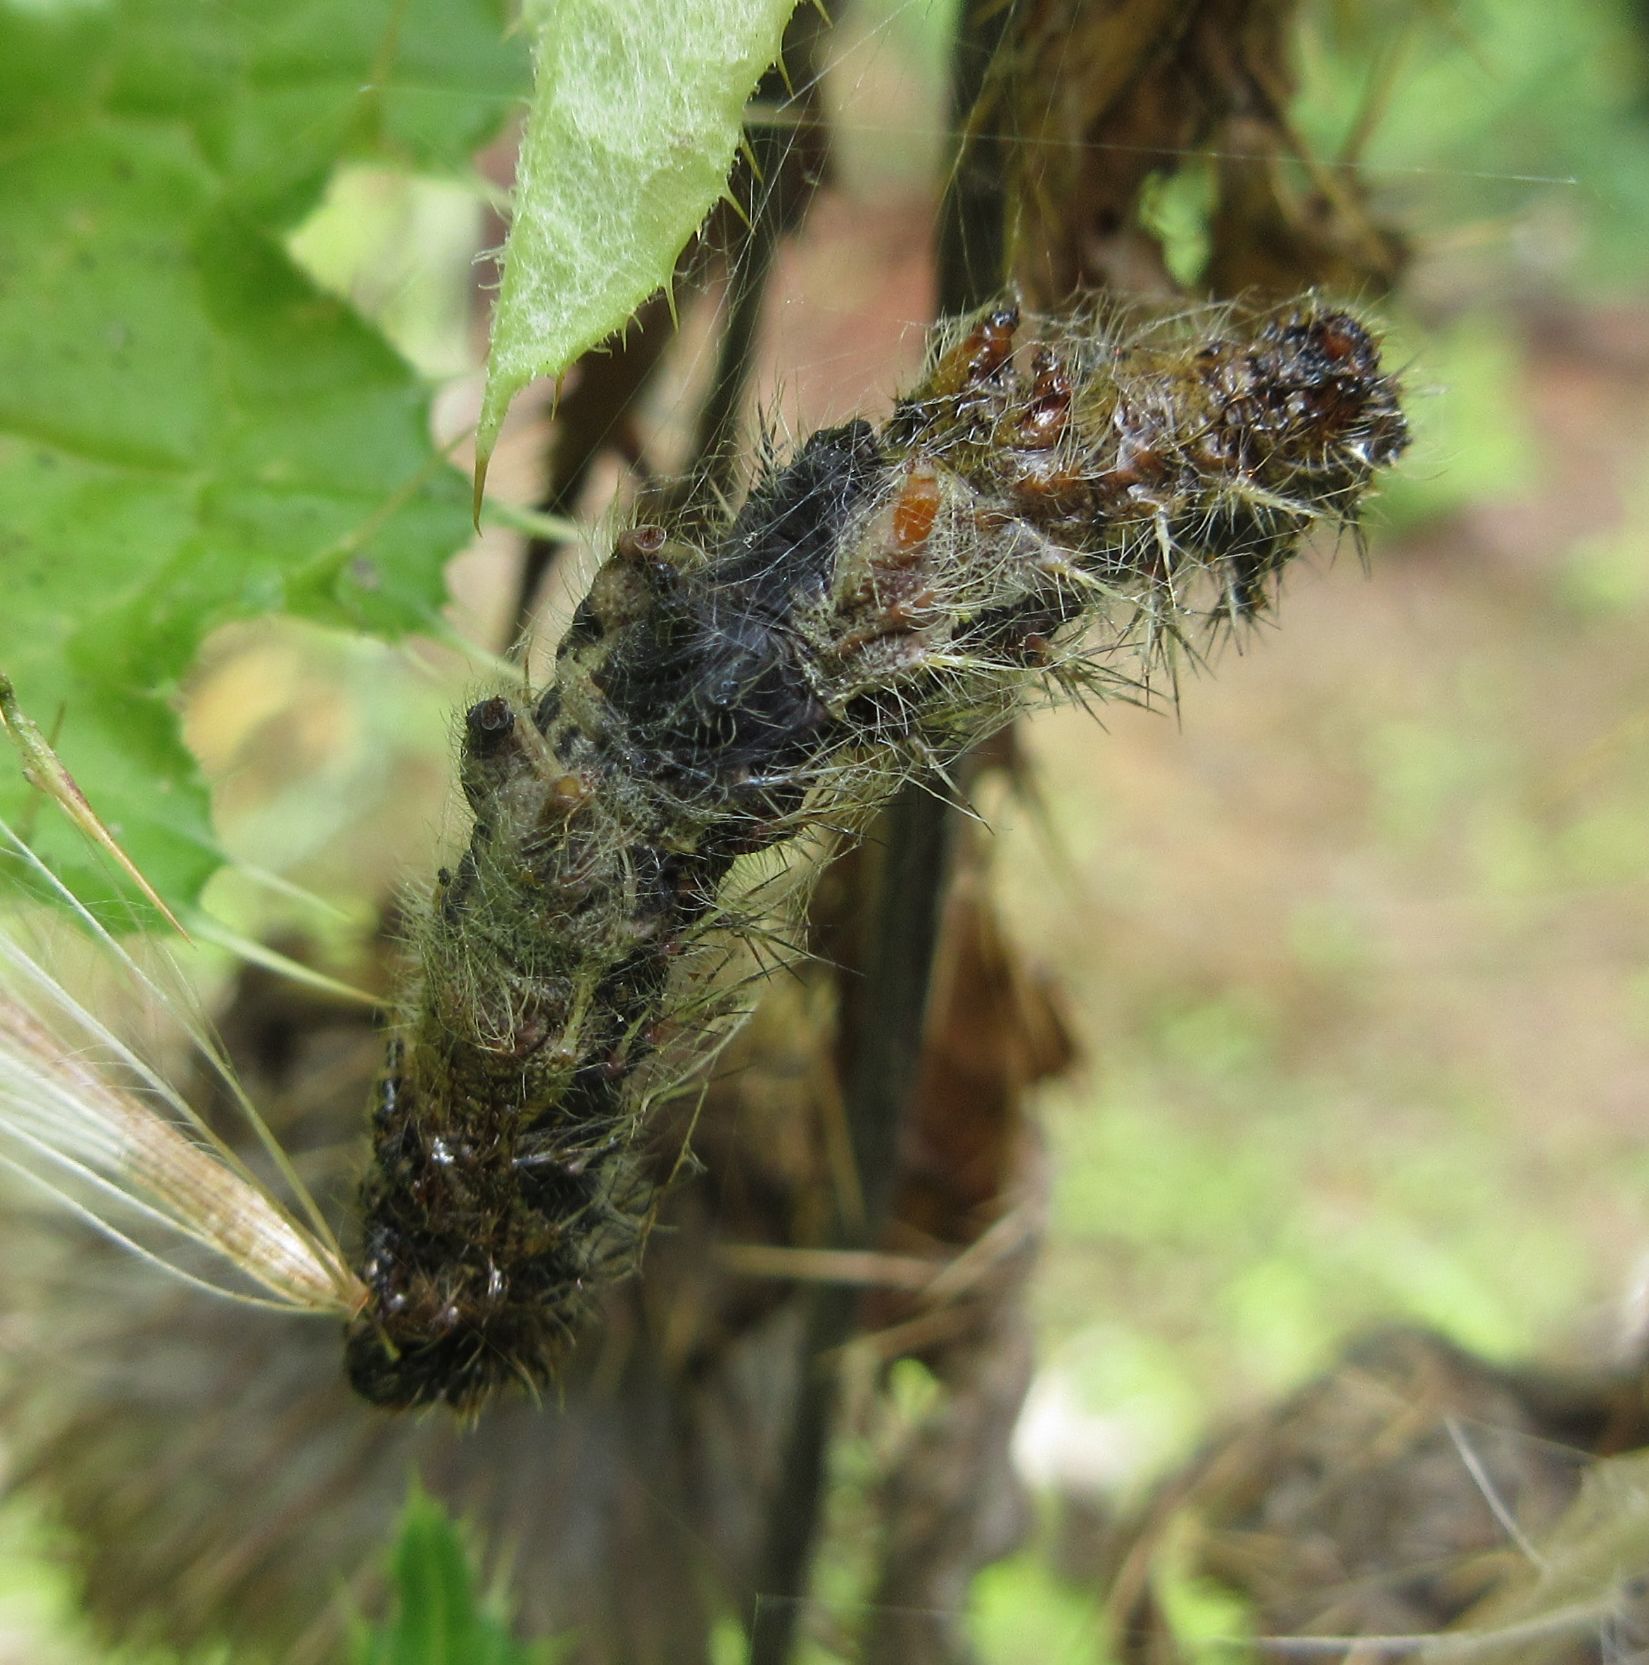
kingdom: Animalia
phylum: Arthropoda
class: Insecta
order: Lepidoptera
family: Nymphalidae
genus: Vanessa
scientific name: Vanessa cardui
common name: Painted lady
